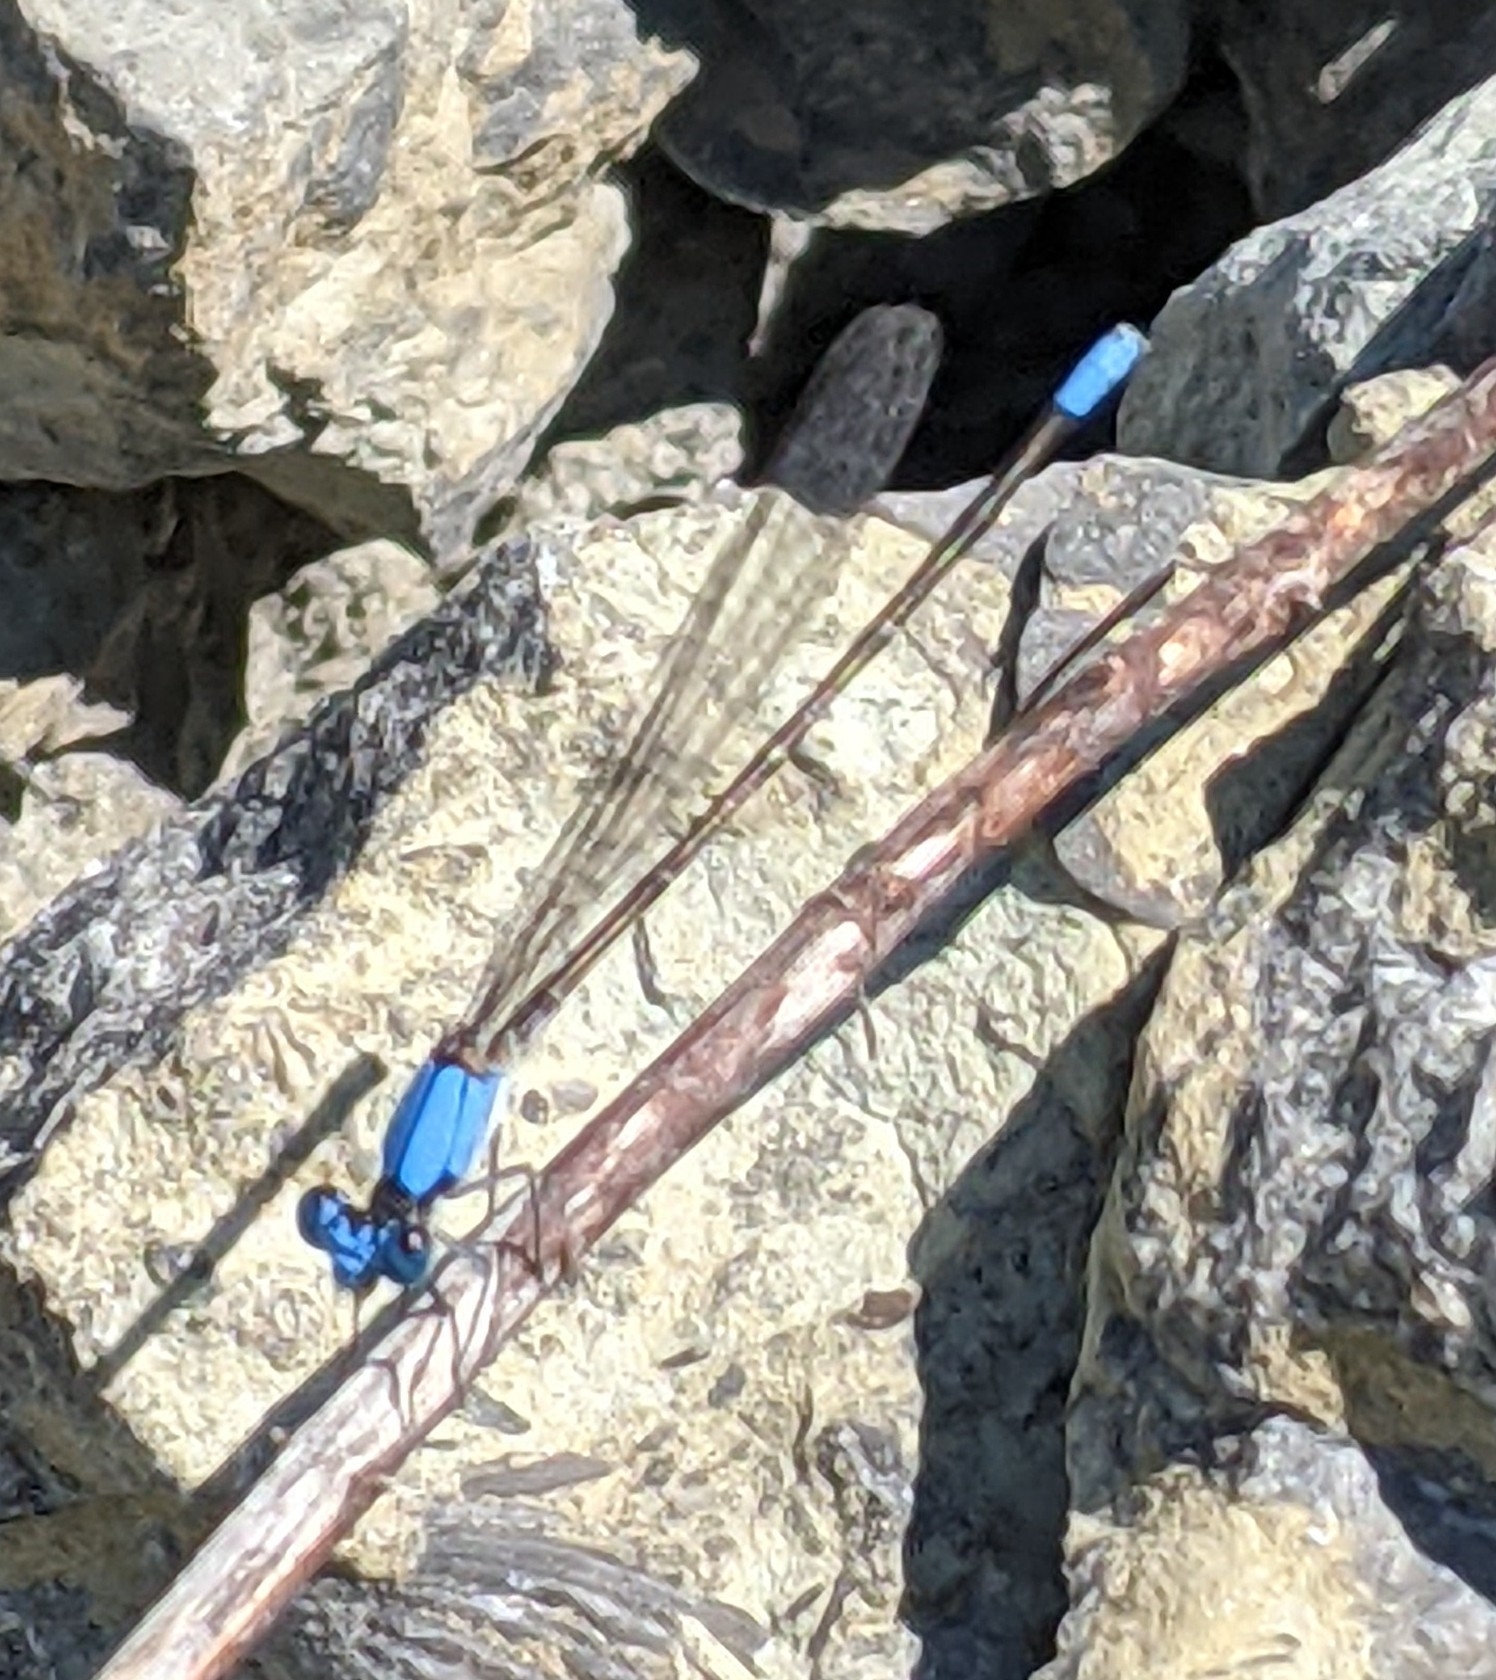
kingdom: Animalia
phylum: Arthropoda
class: Insecta
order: Odonata
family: Coenagrionidae
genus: Argia
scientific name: Argia apicalis
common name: Blue-fronted dancer
